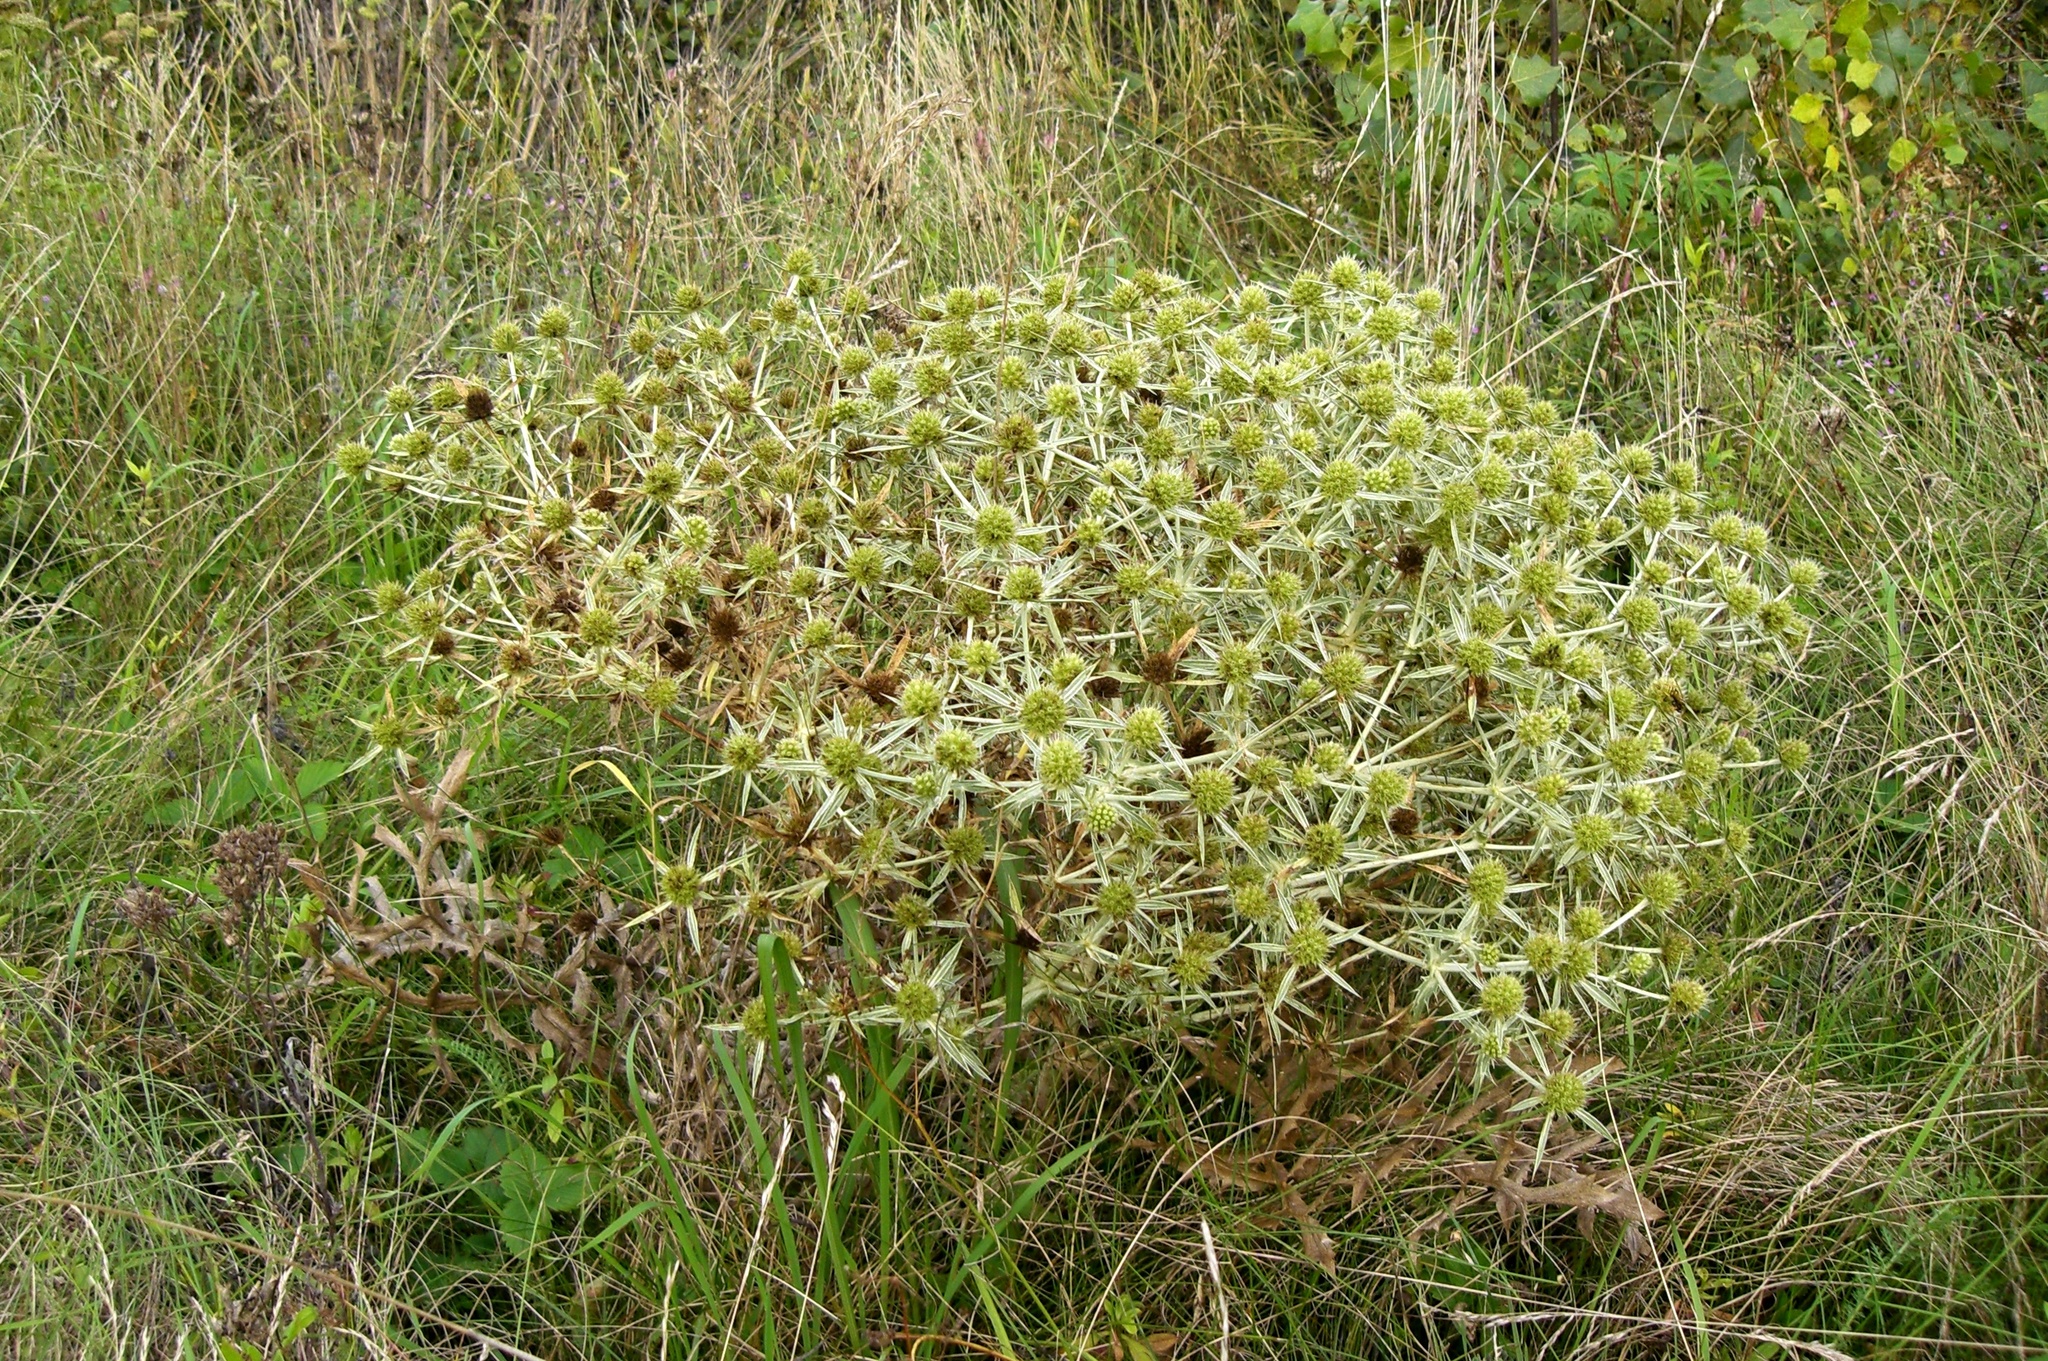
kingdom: Plantae
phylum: Tracheophyta
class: Magnoliopsida
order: Apiales
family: Apiaceae
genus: Eryngium
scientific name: Eryngium campestre
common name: Field eryngo
